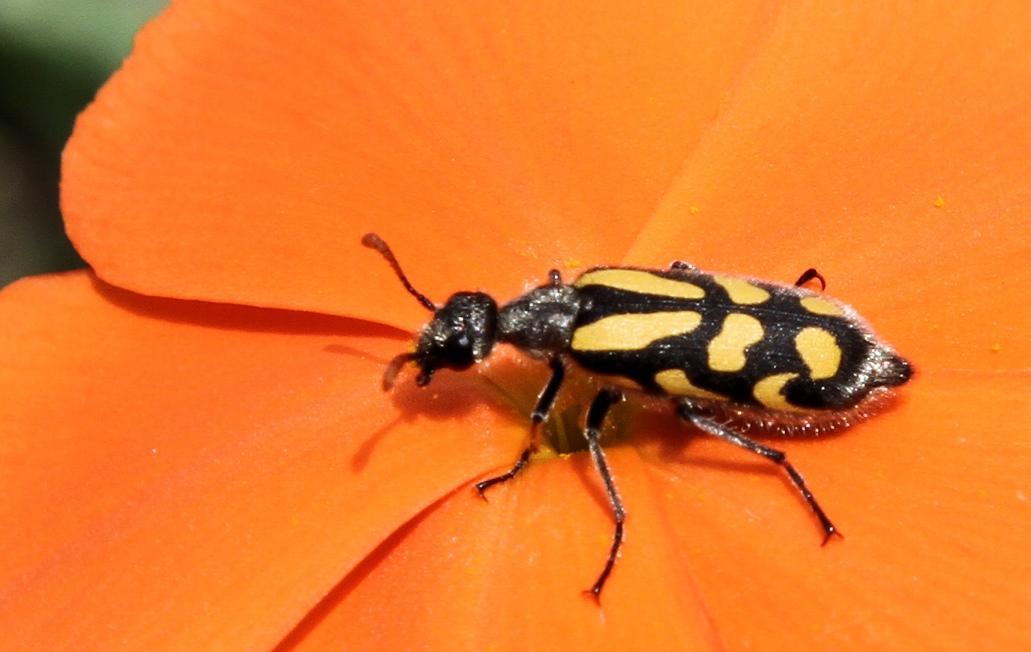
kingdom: Plantae
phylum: Tracheophyta
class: Magnoliopsida
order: Malpighiales
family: Turneraceae
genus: Tricliceras
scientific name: Tricliceras lacerata
